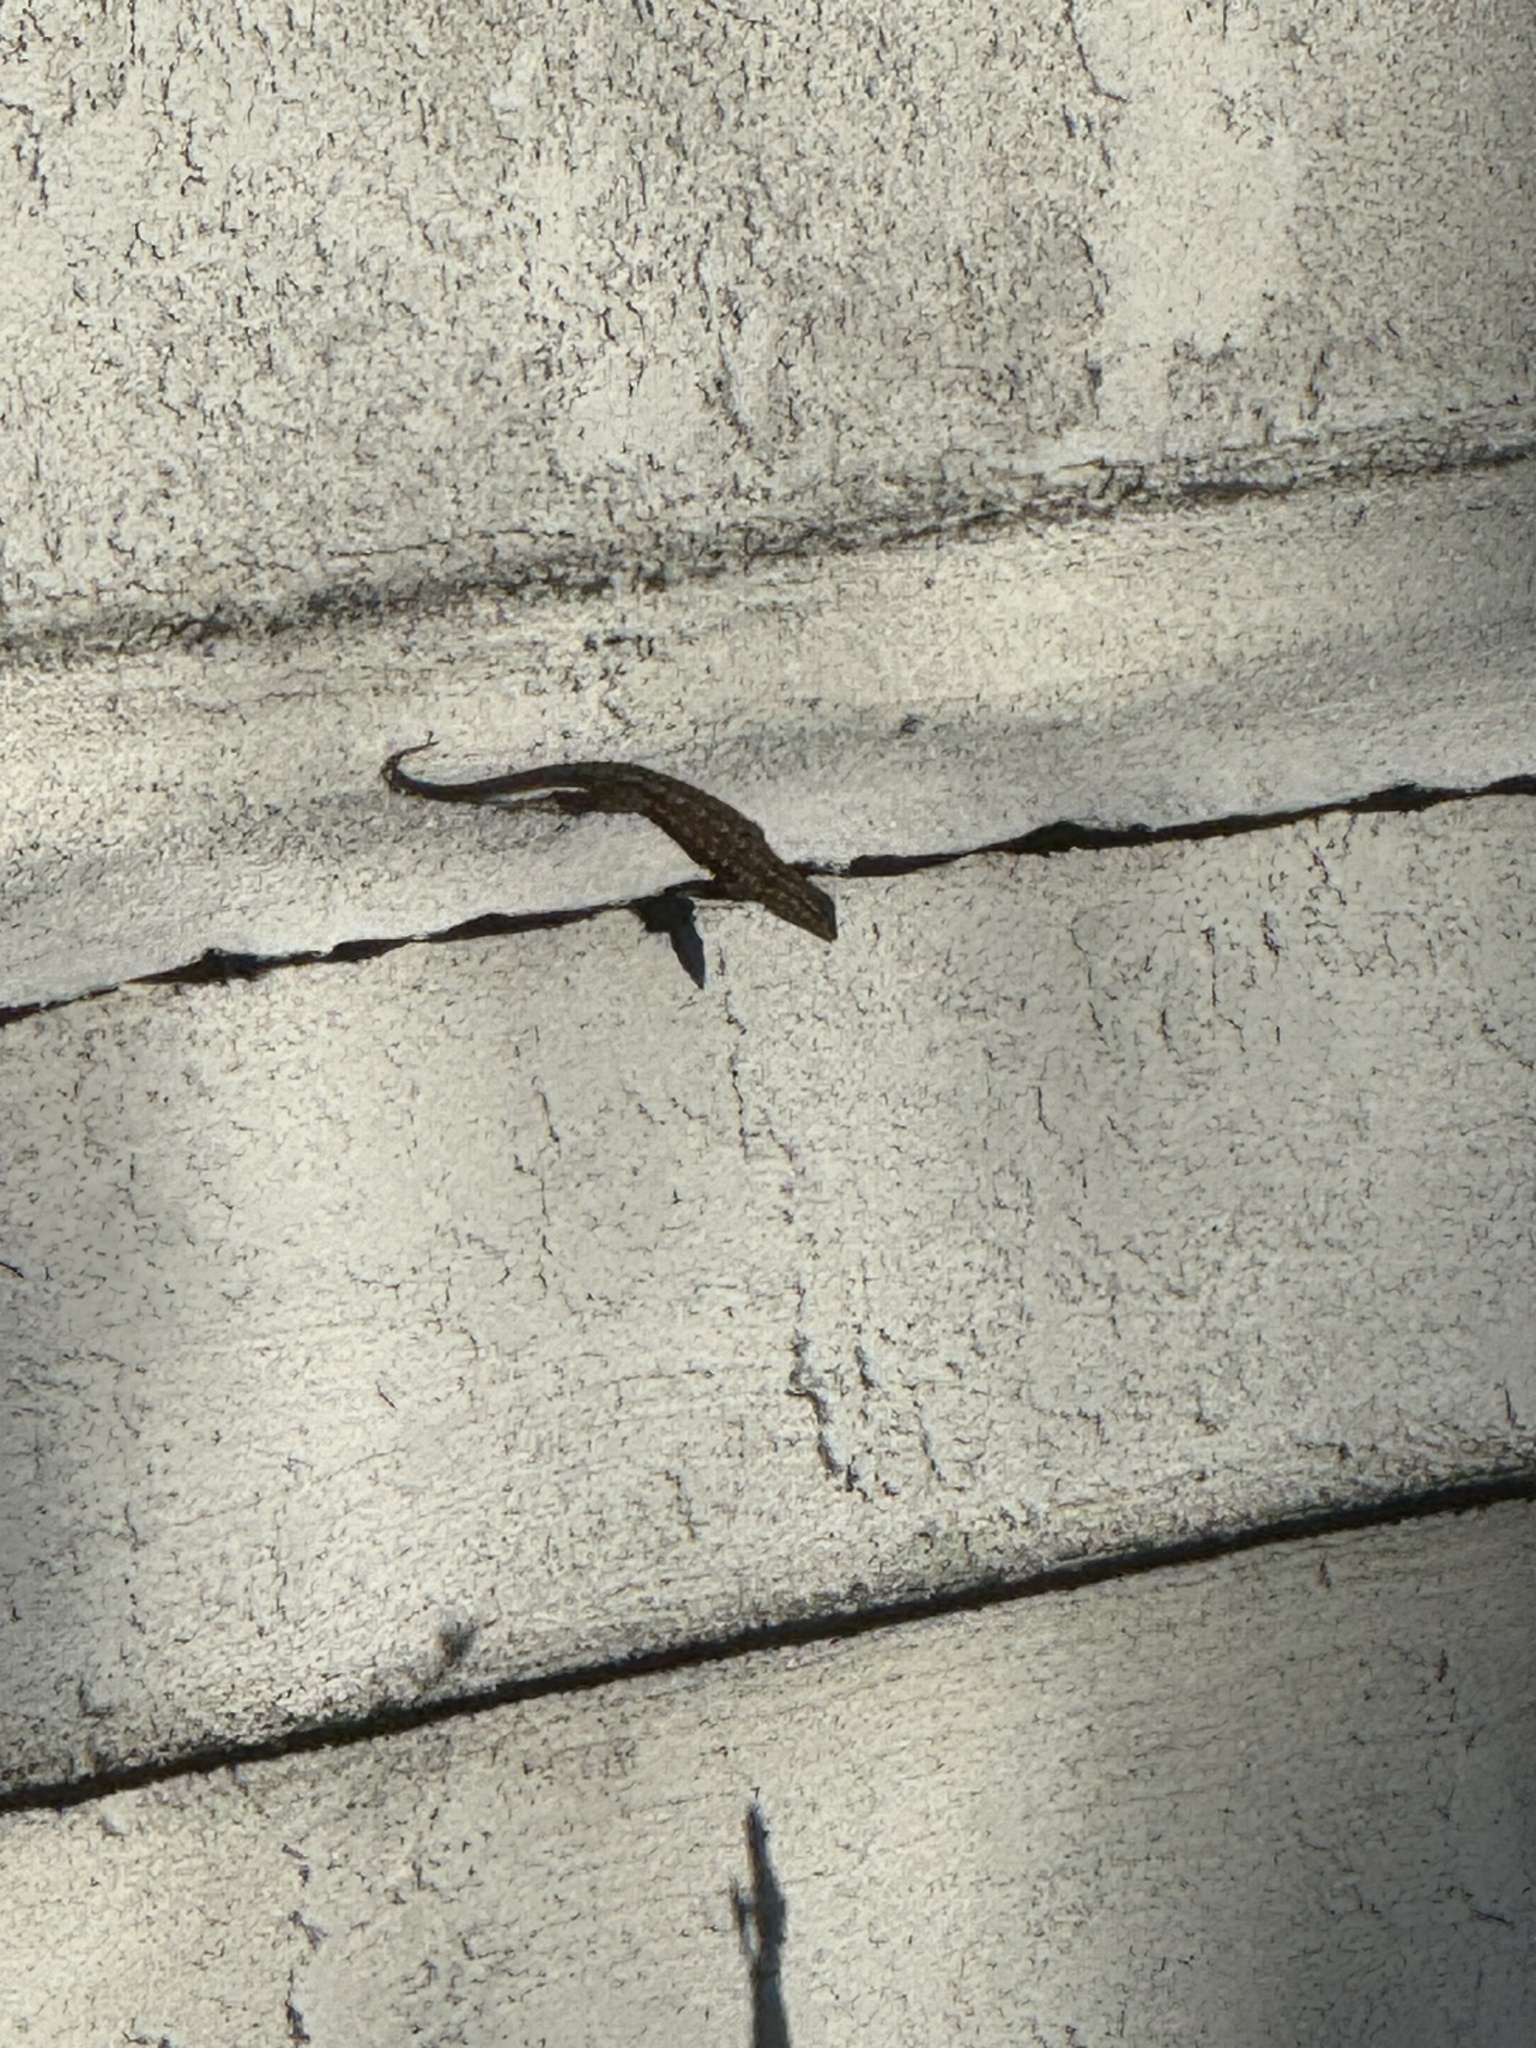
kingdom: Animalia
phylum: Chordata
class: Squamata
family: Phrynosomatidae
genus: Uta
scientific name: Uta stansburiana
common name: Side-blotched lizard
